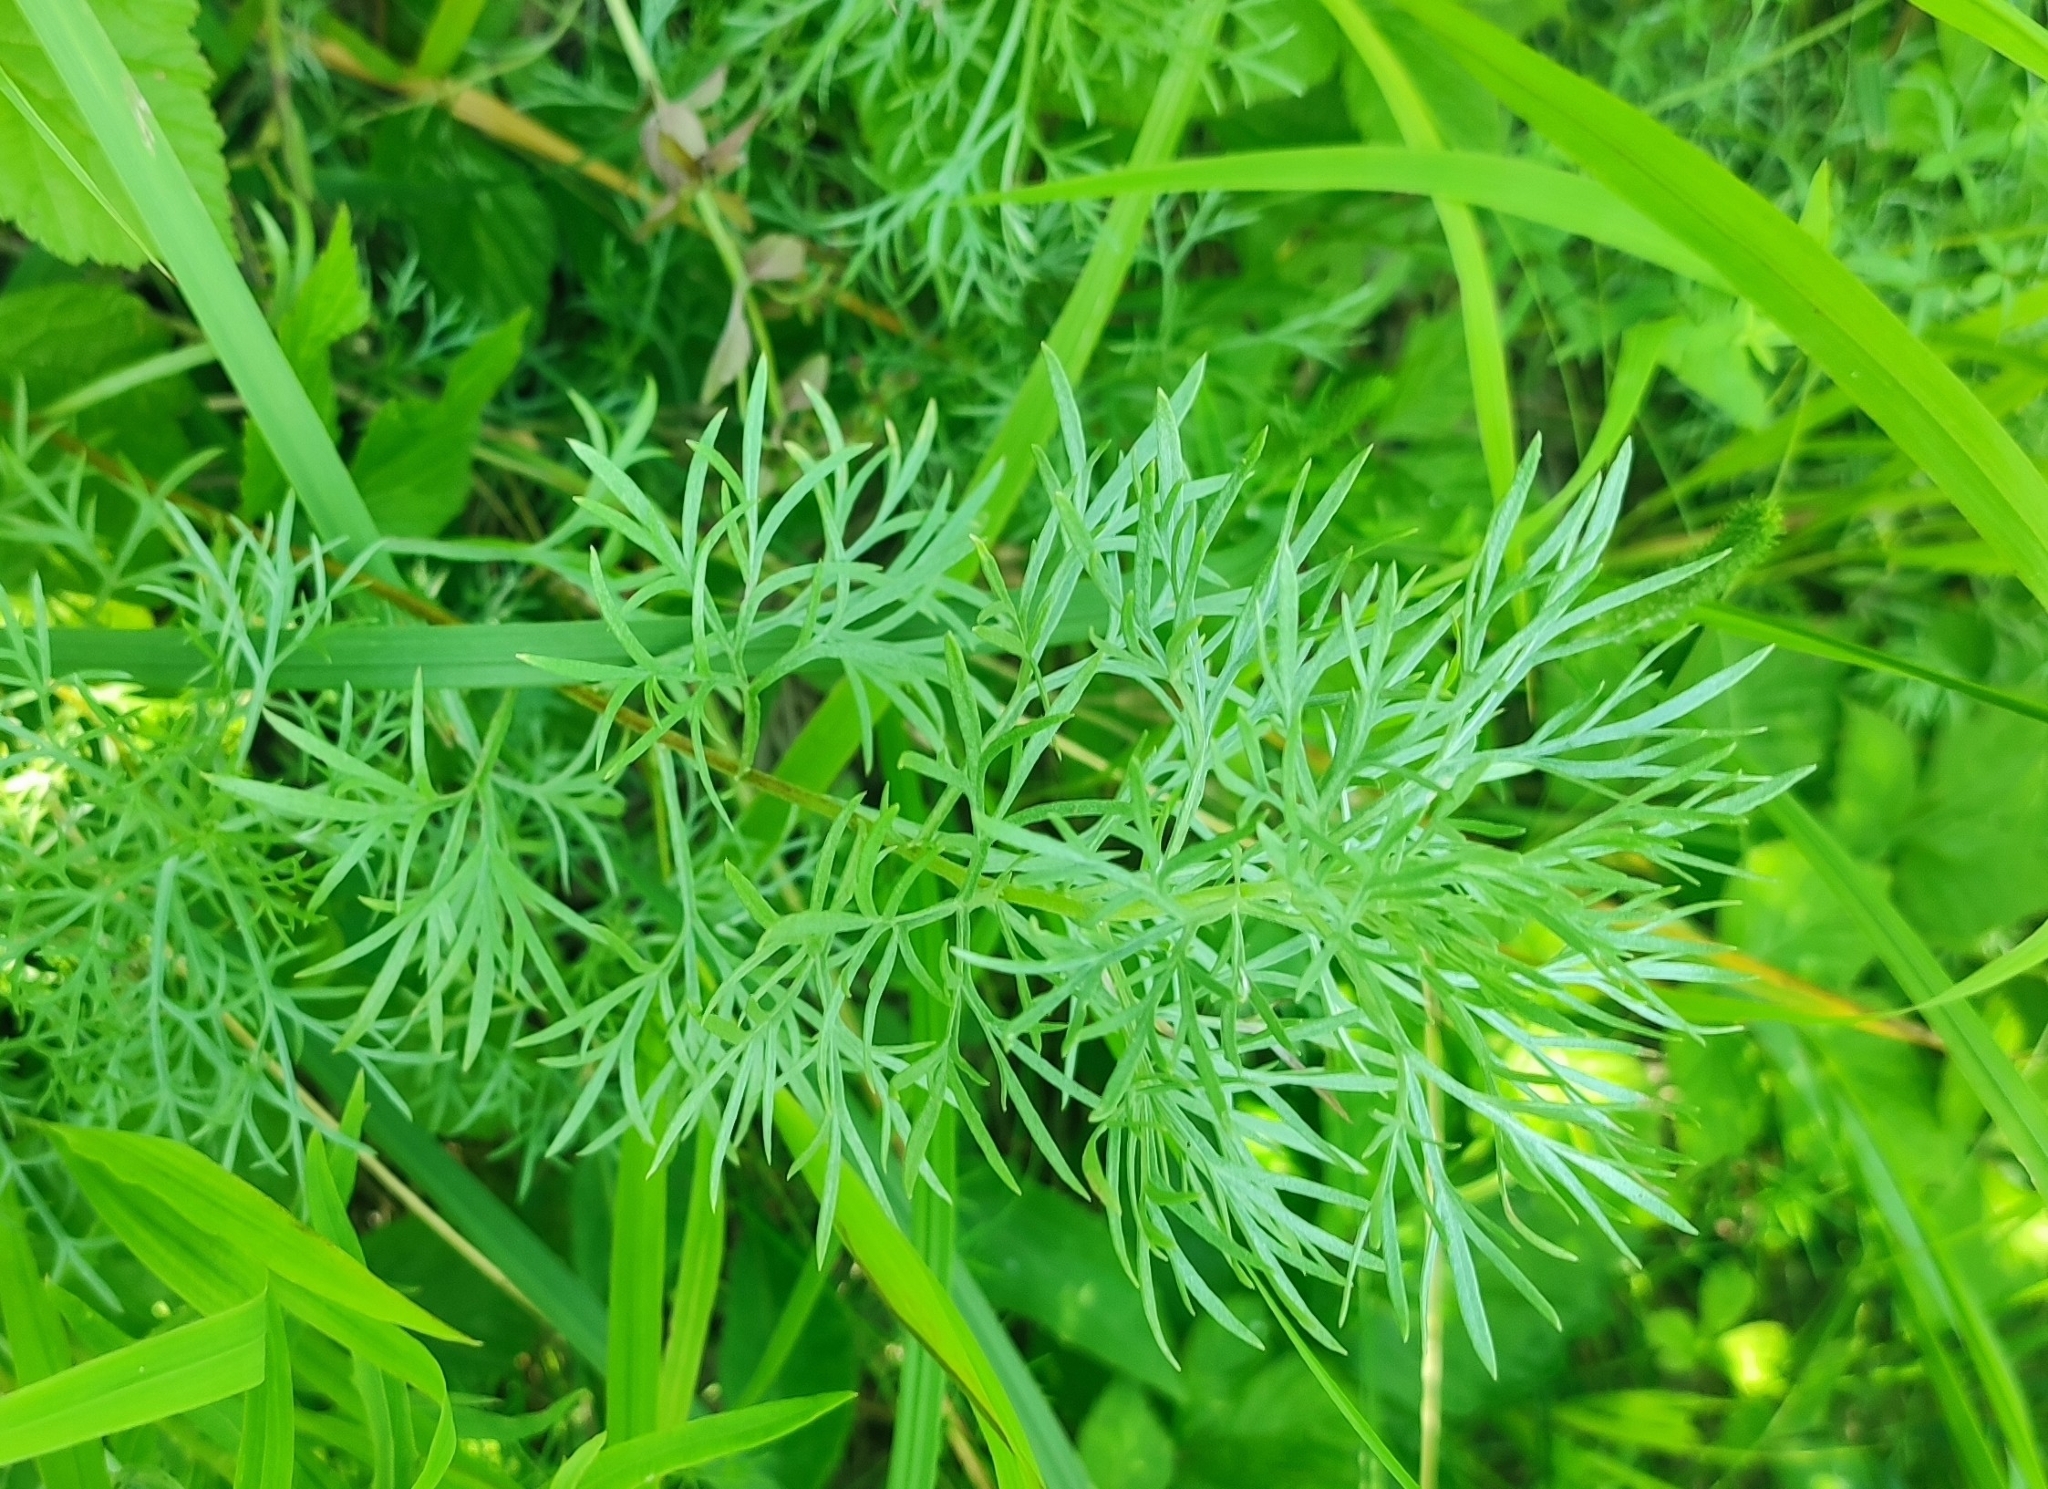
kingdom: Plantae
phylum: Tracheophyta
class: Magnoliopsida
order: Asterales
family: Asteraceae
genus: Artemisia
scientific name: Artemisia sericea
